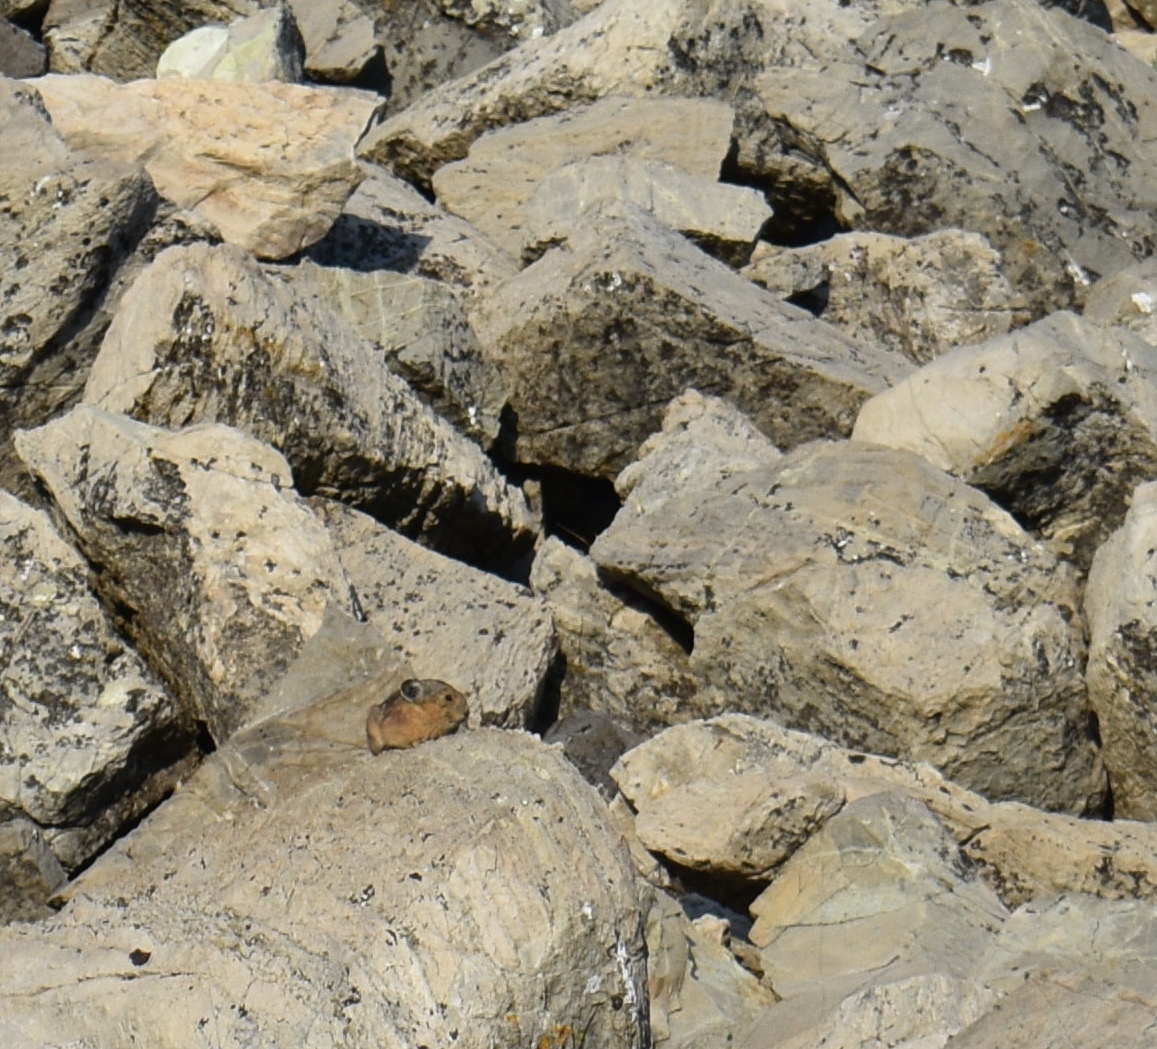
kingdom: Animalia
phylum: Chordata
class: Mammalia
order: Lagomorpha
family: Ochotonidae
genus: Ochotona
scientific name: Ochotona princeps
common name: American pika
